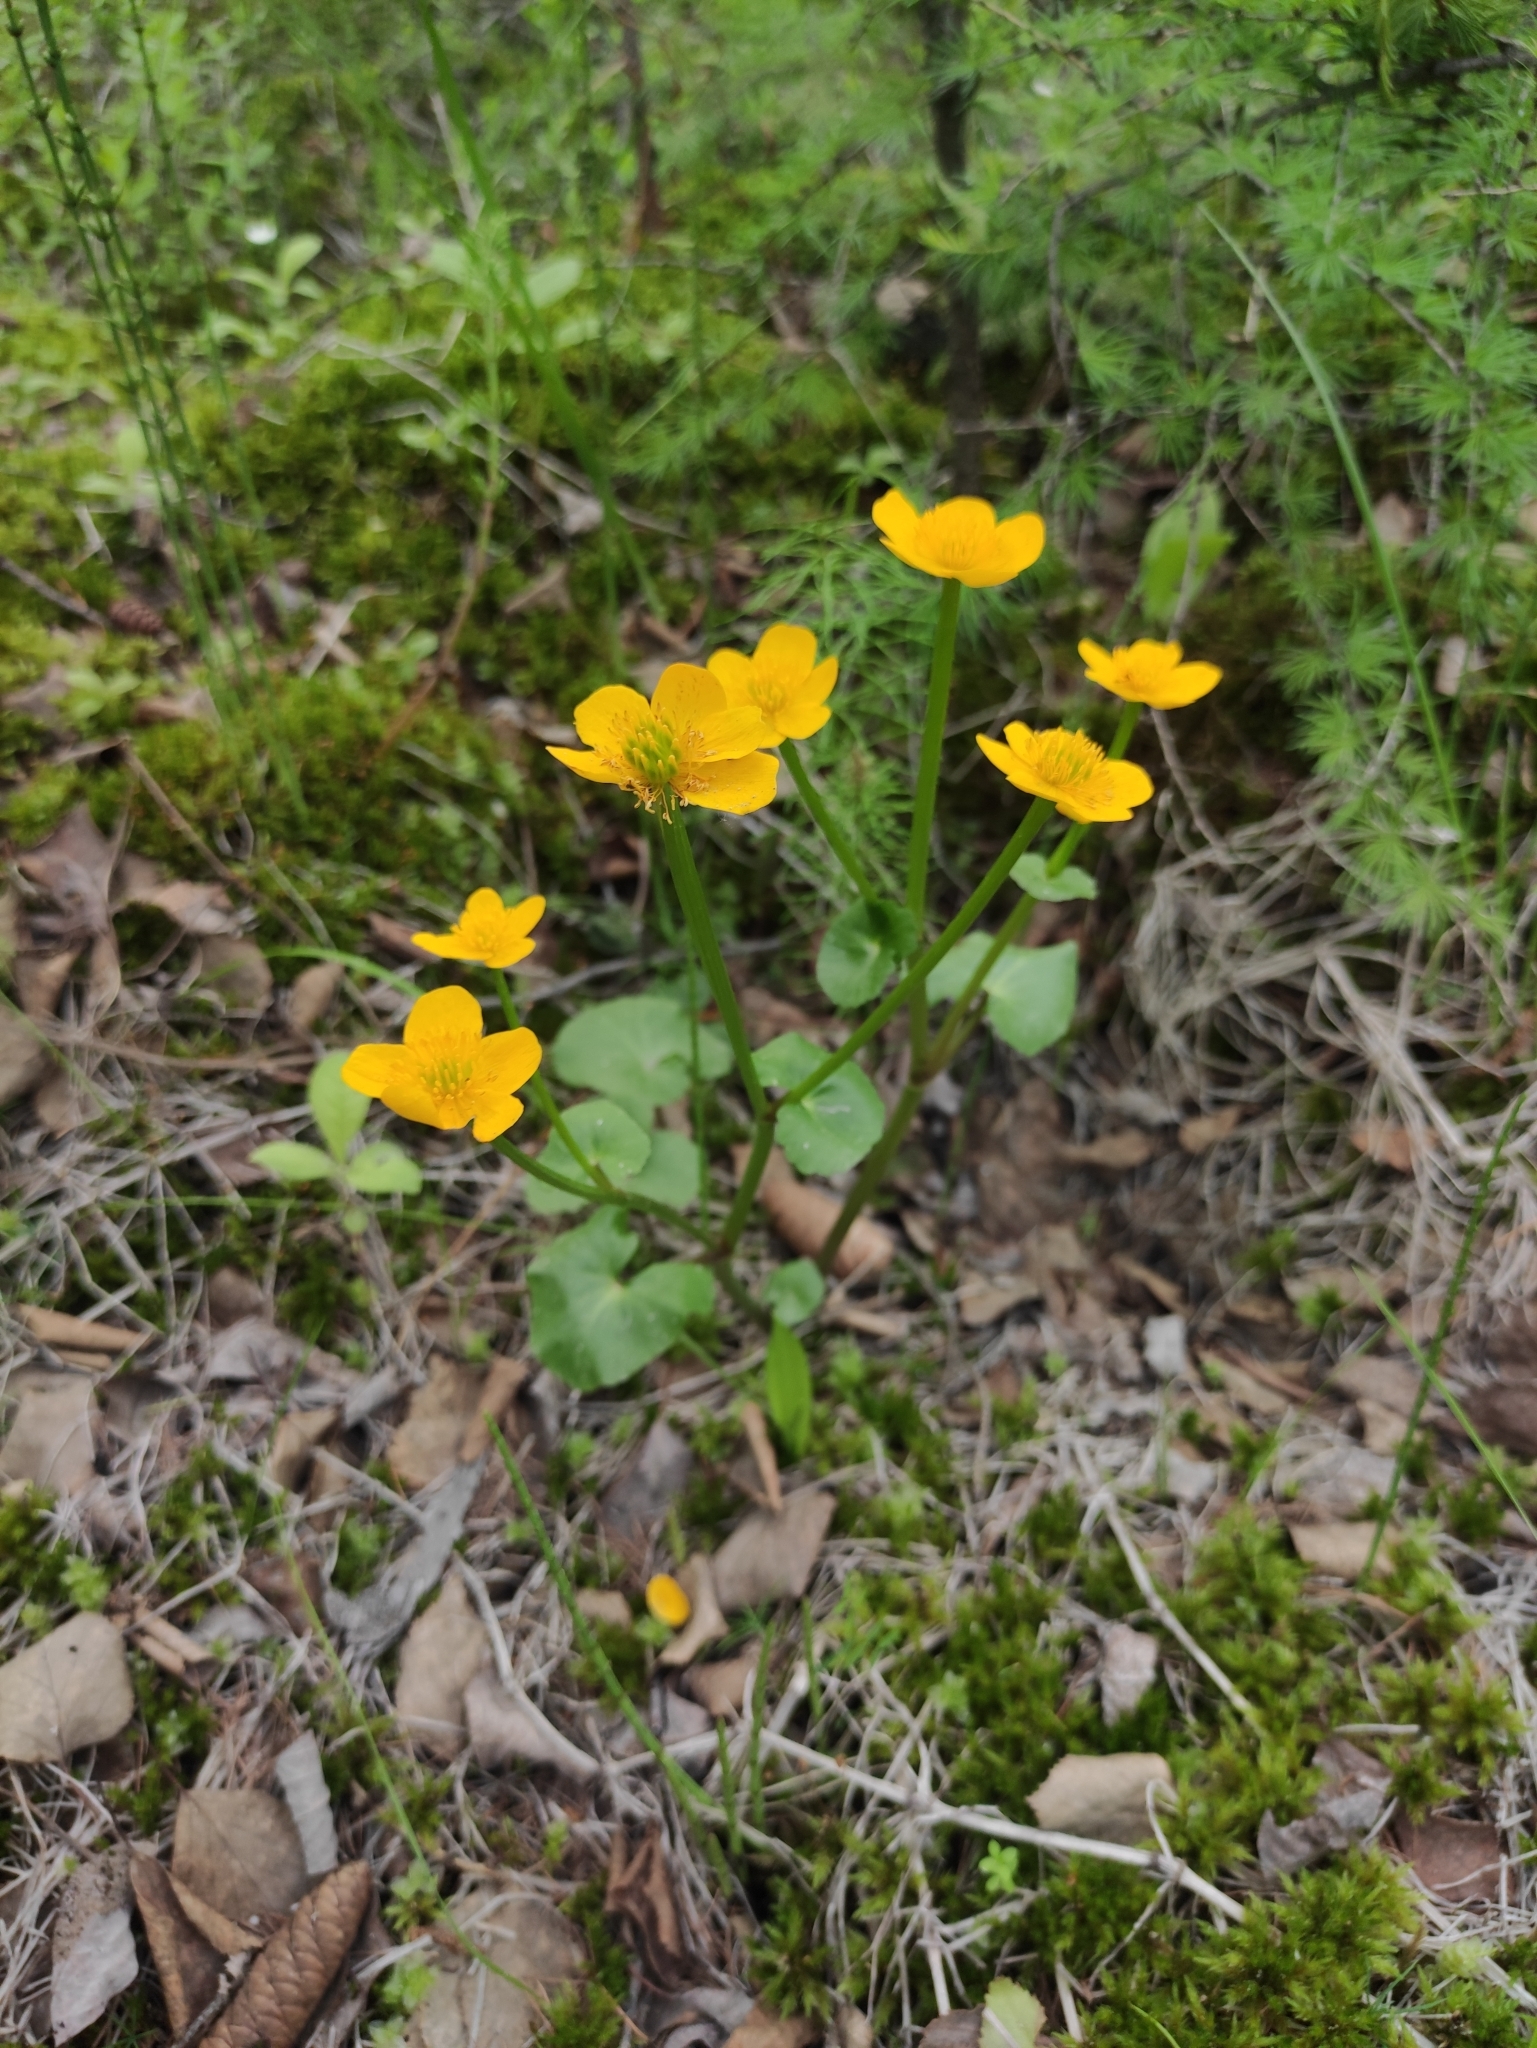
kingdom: Plantae
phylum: Tracheophyta
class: Magnoliopsida
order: Ranunculales
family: Ranunculaceae
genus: Caltha
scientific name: Caltha palustris
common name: Marsh marigold
